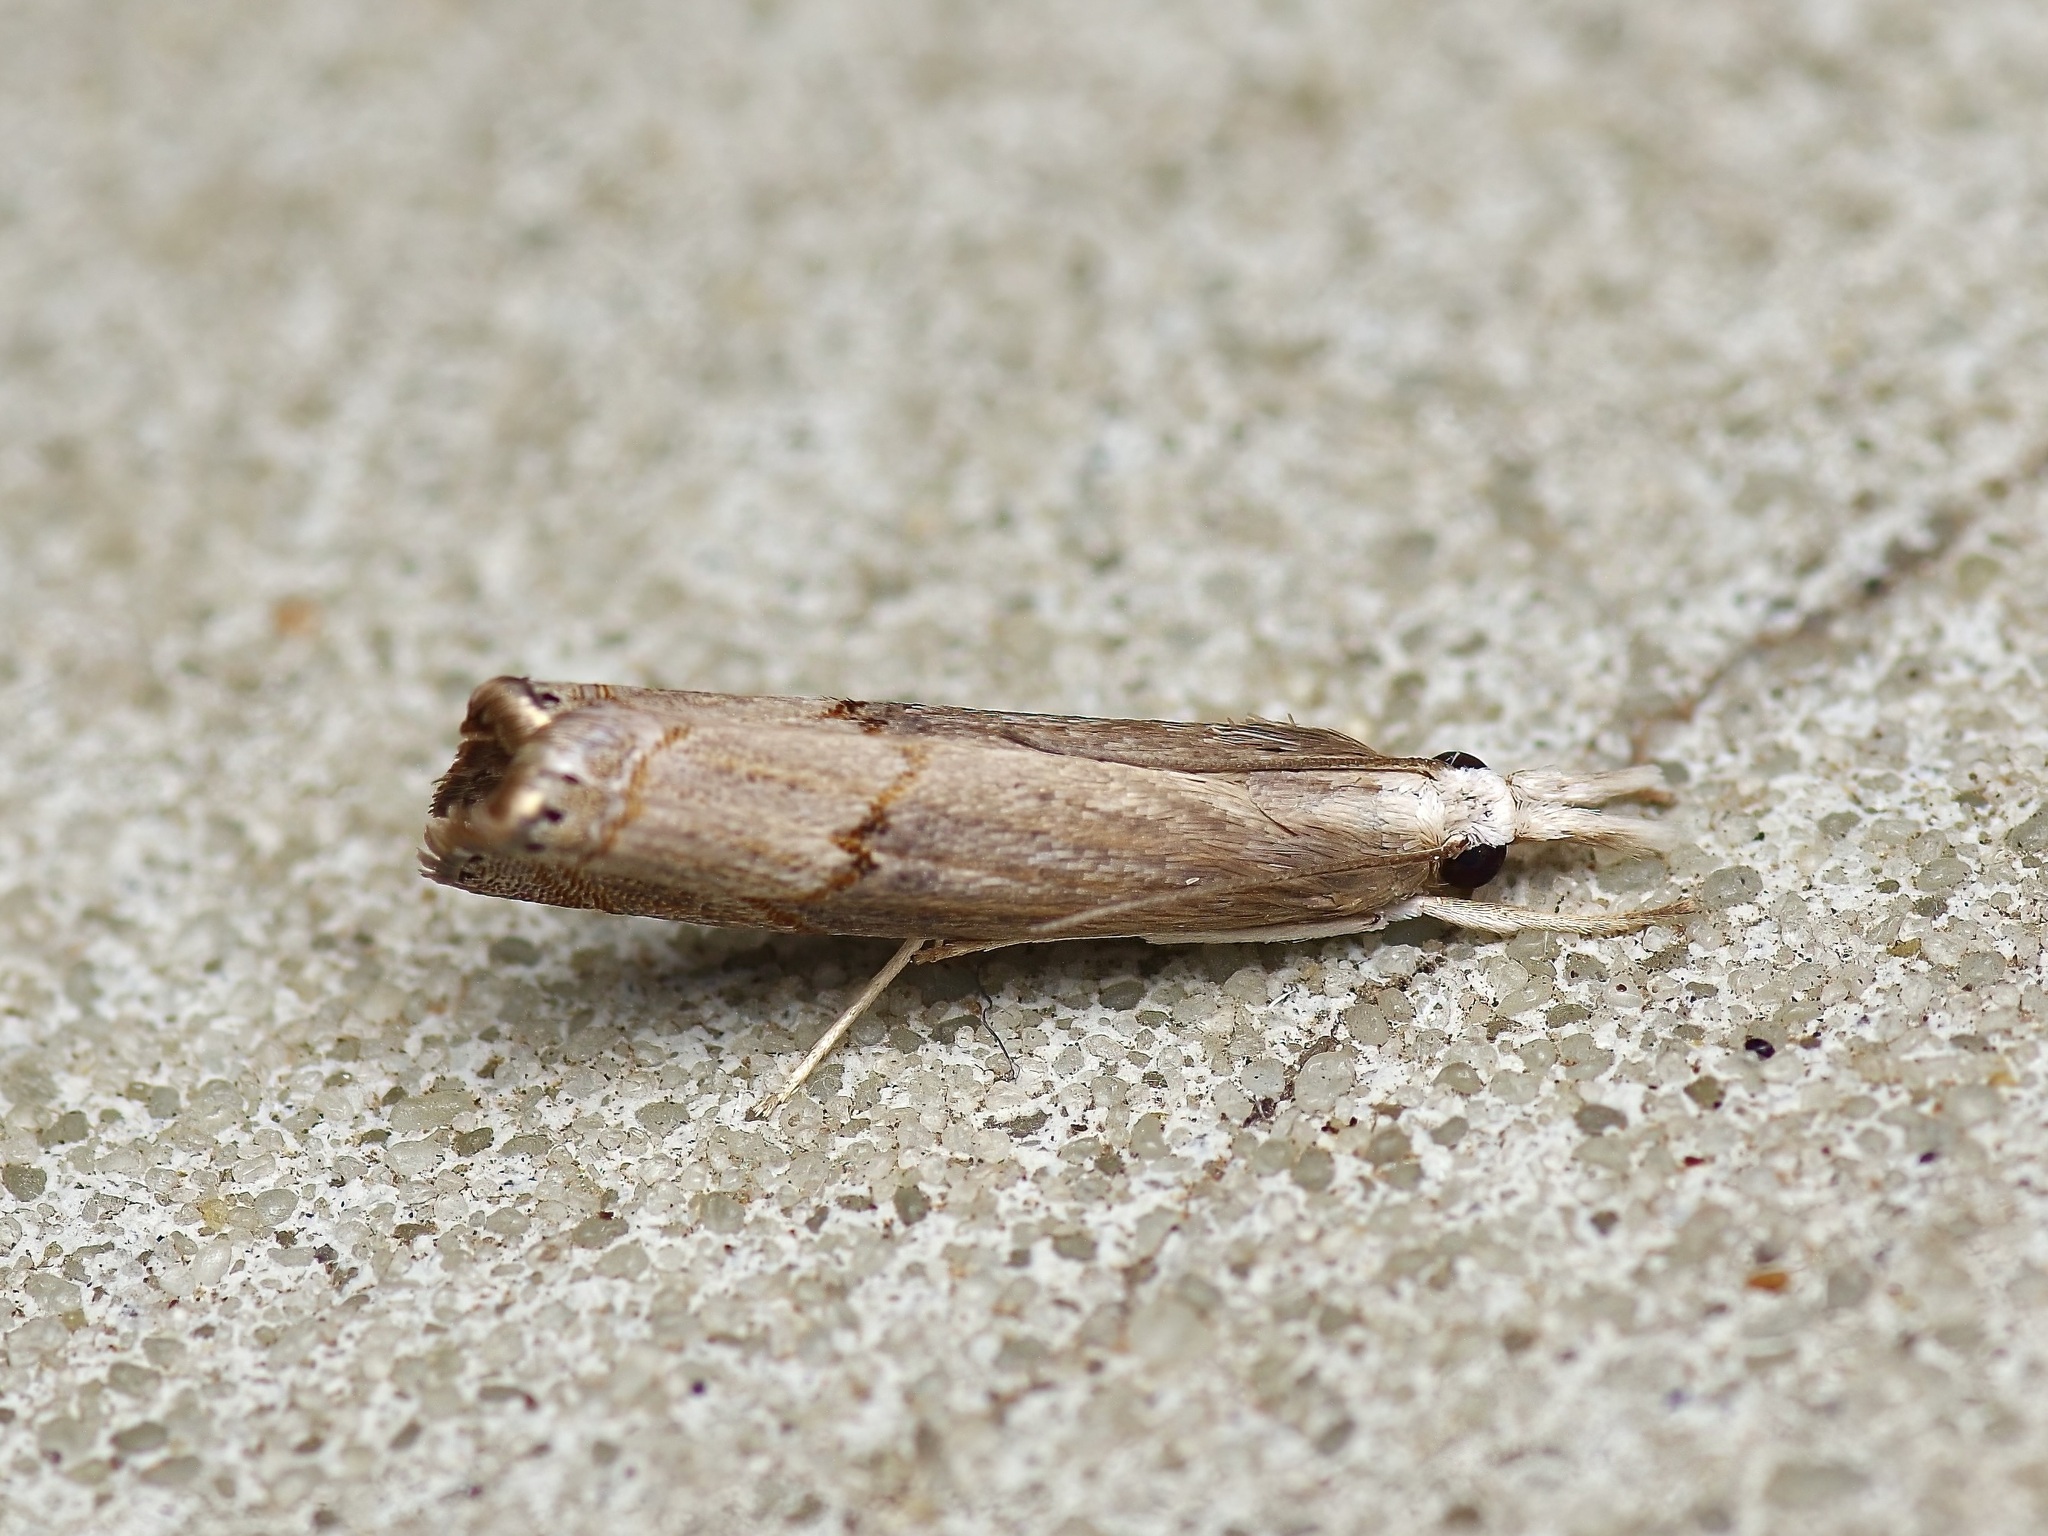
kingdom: Animalia
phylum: Arthropoda
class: Insecta
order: Lepidoptera
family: Crambidae
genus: Parapediasia
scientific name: Parapediasia teterellus
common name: Bluegrass webworm moth
